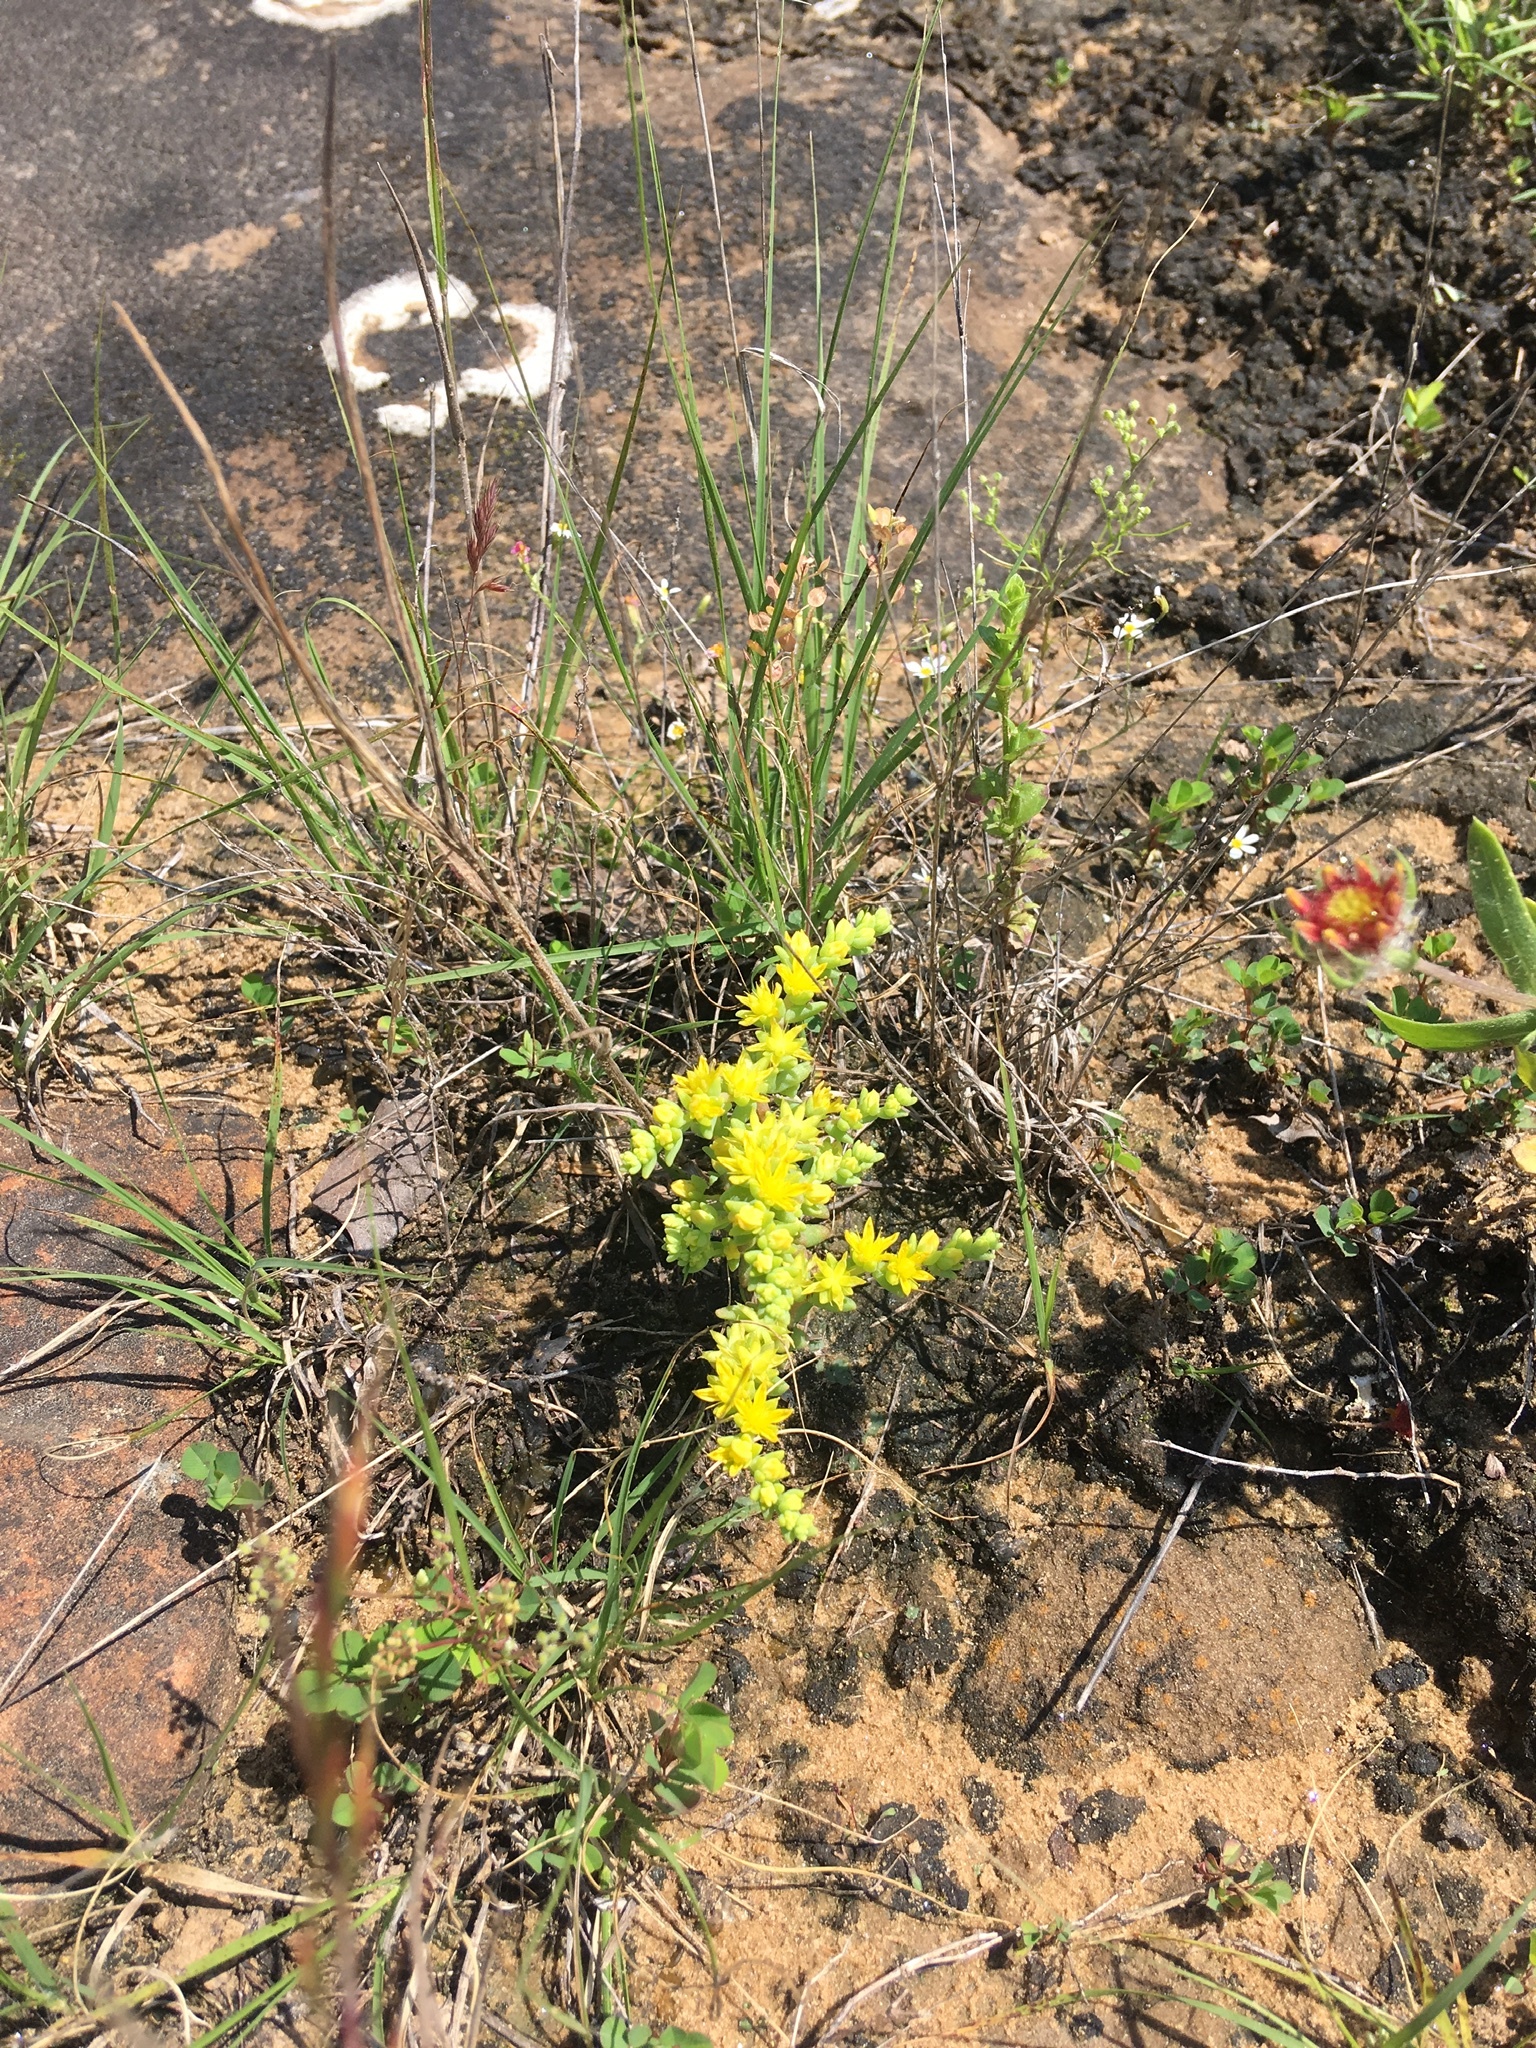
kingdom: Plantae
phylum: Tracheophyta
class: Magnoliopsida
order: Saxifragales
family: Crassulaceae
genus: Sedum
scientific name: Sedum nuttallii
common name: Yellow stonecrop
